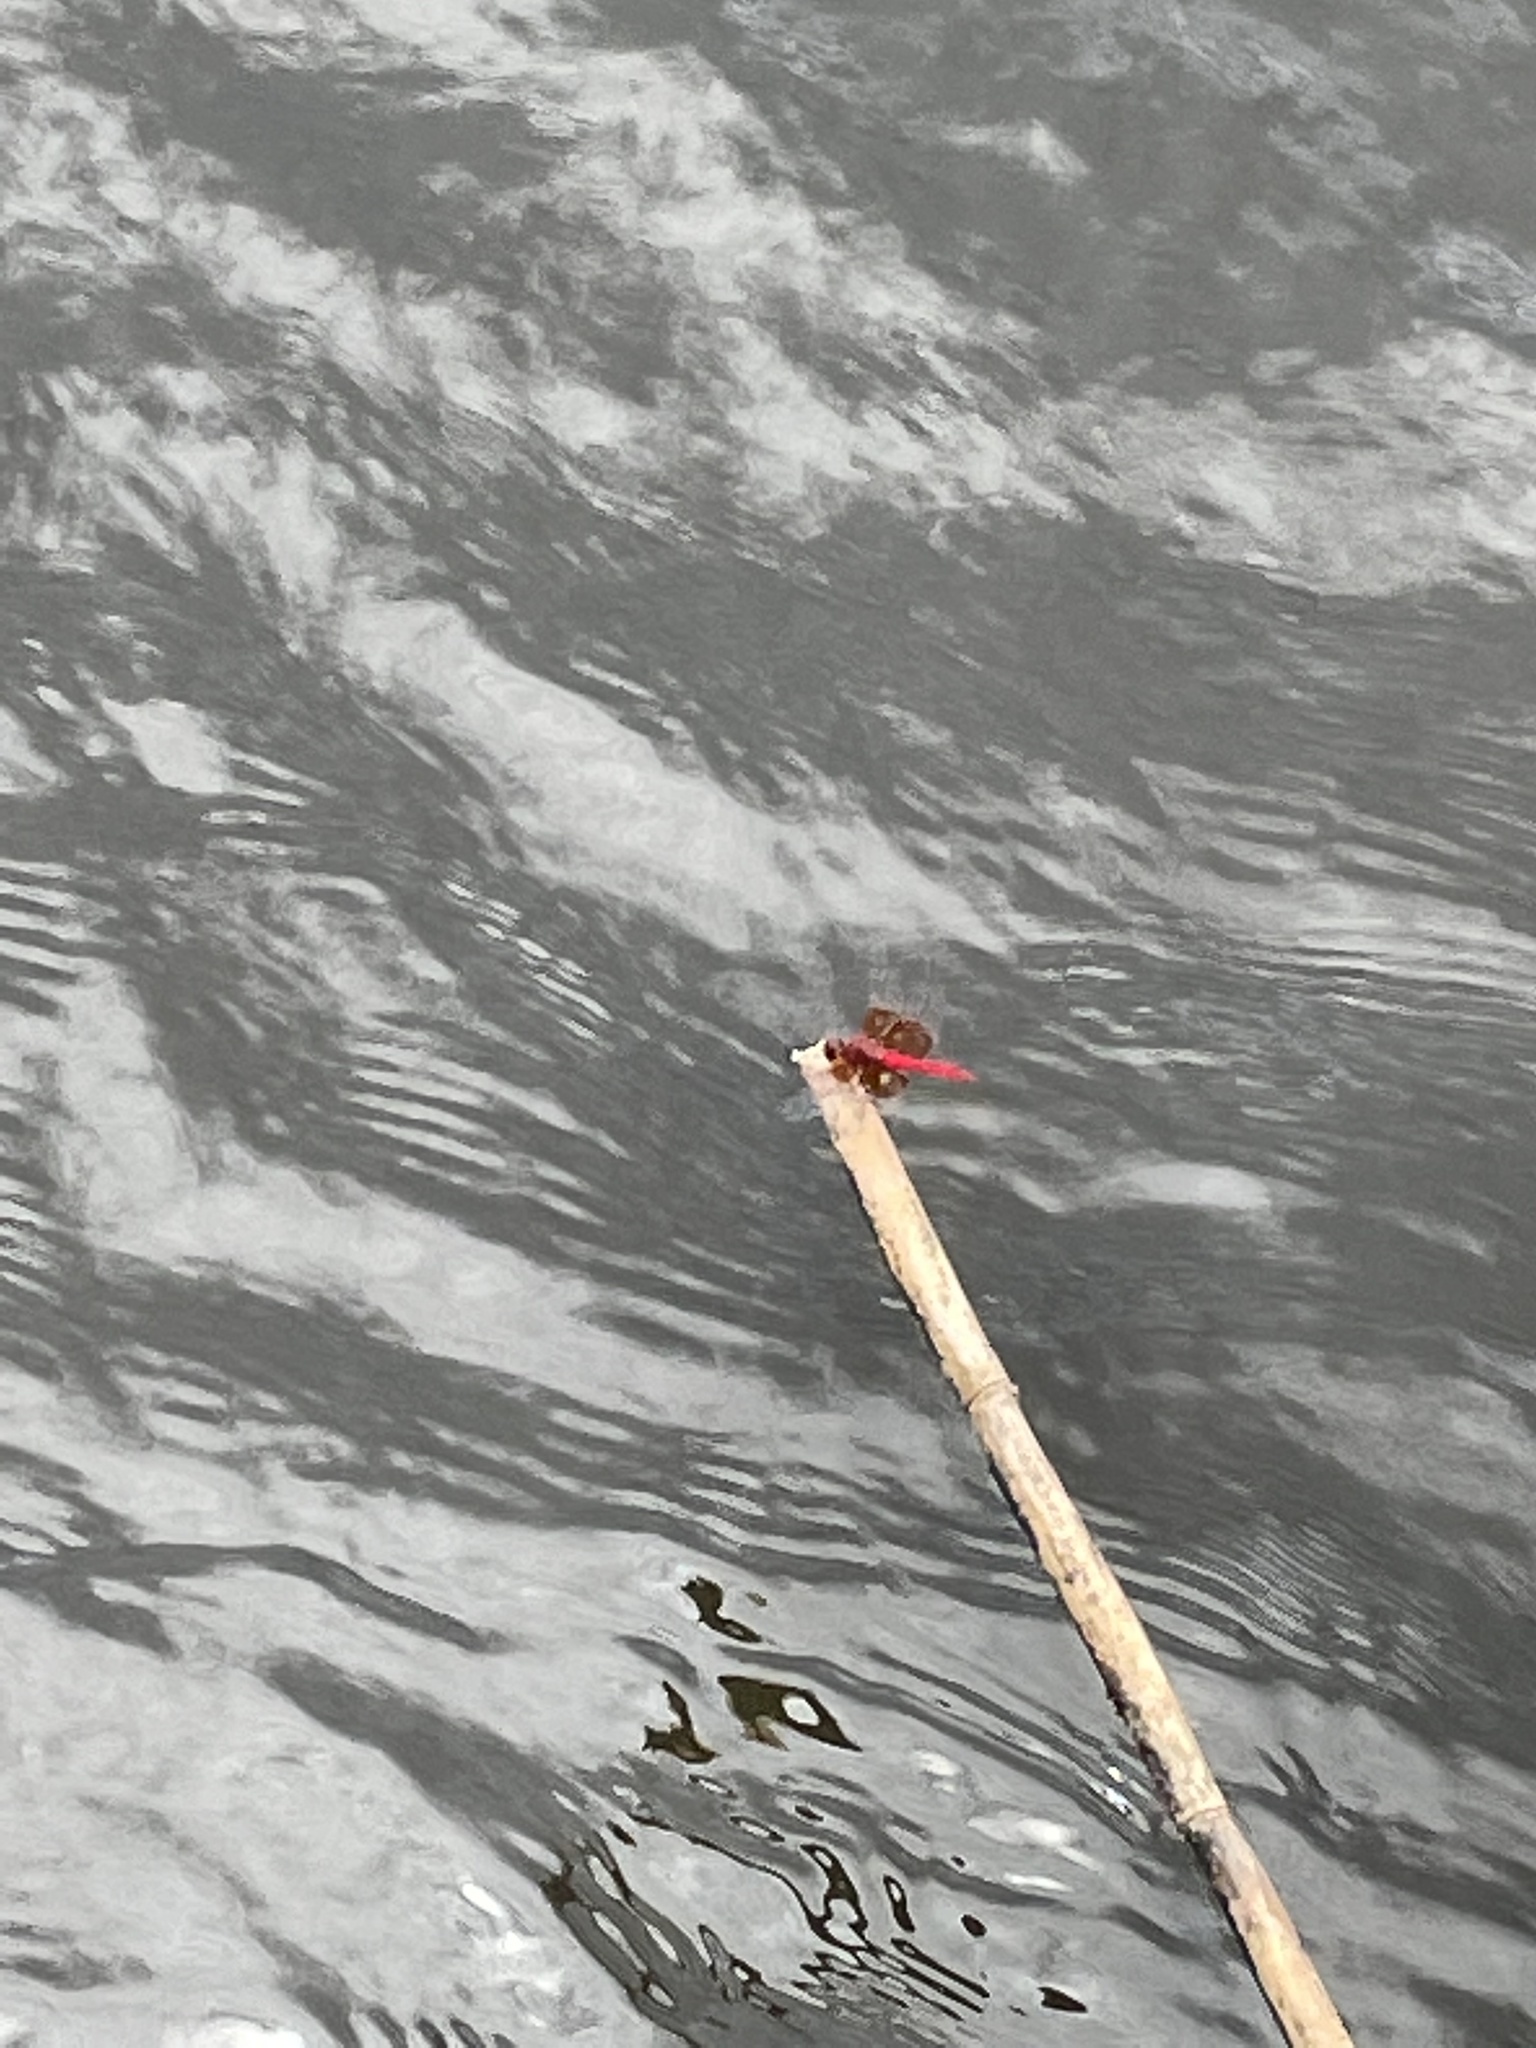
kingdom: Animalia
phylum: Arthropoda
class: Insecta
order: Odonata
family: Libellulidae
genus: Brachythemis
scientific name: Brachythemis lacustris
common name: Red groundling
